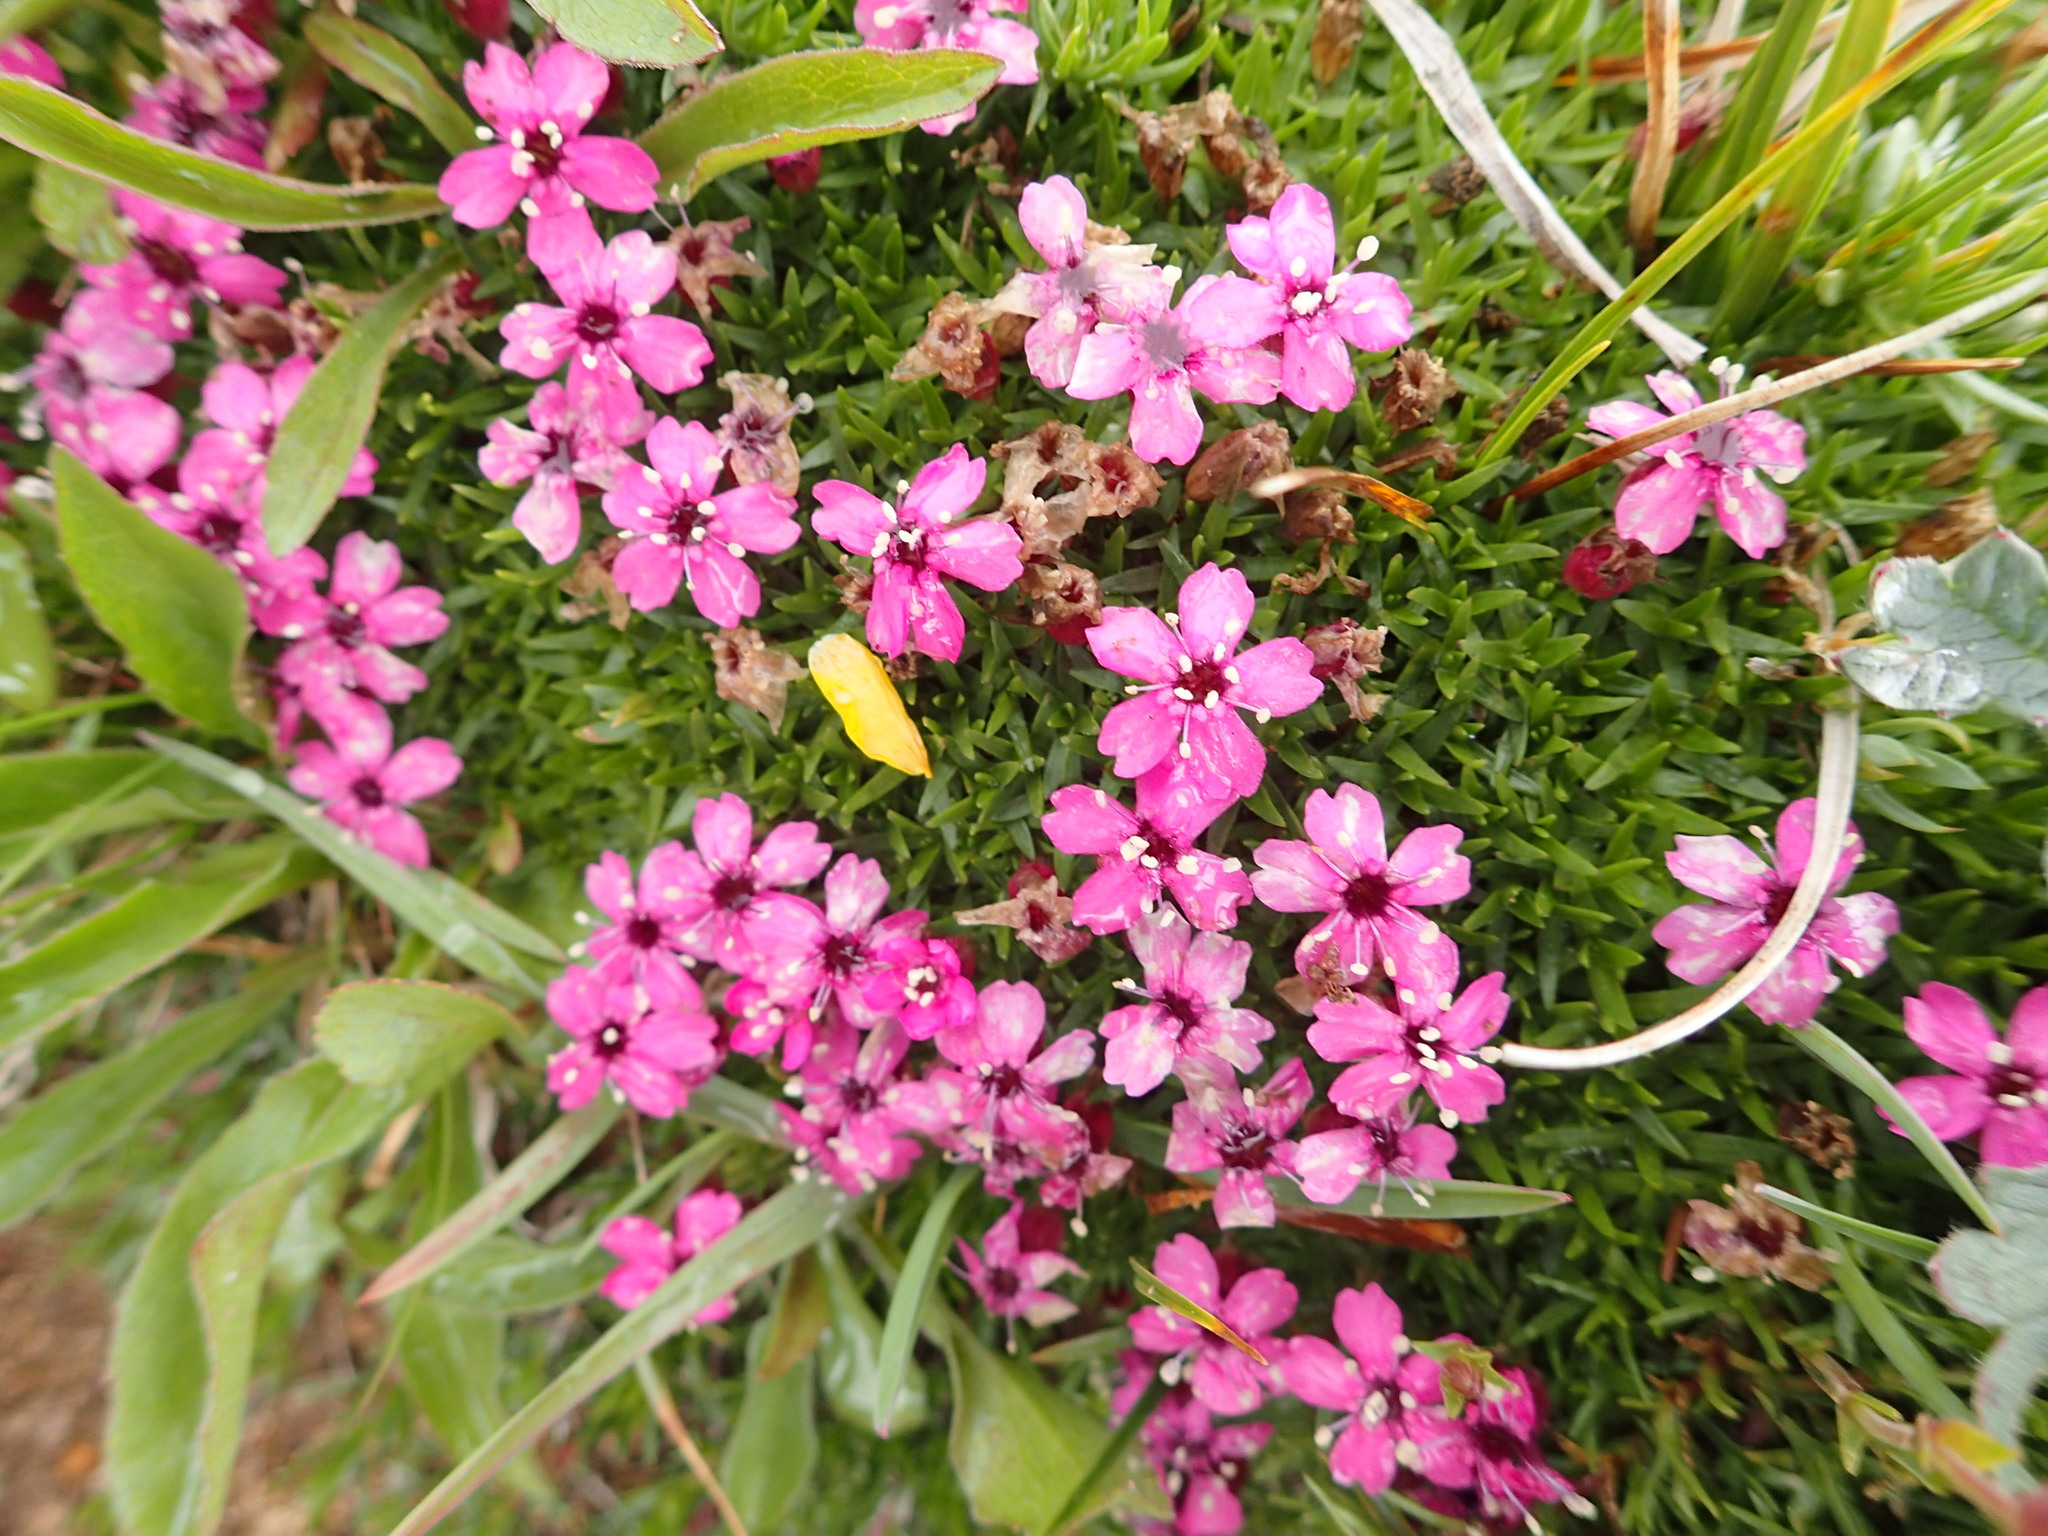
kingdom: Plantae
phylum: Tracheophyta
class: Magnoliopsida
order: Caryophyllales
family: Caryophyllaceae
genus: Silene
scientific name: Silene acaulis
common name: Moss campion
